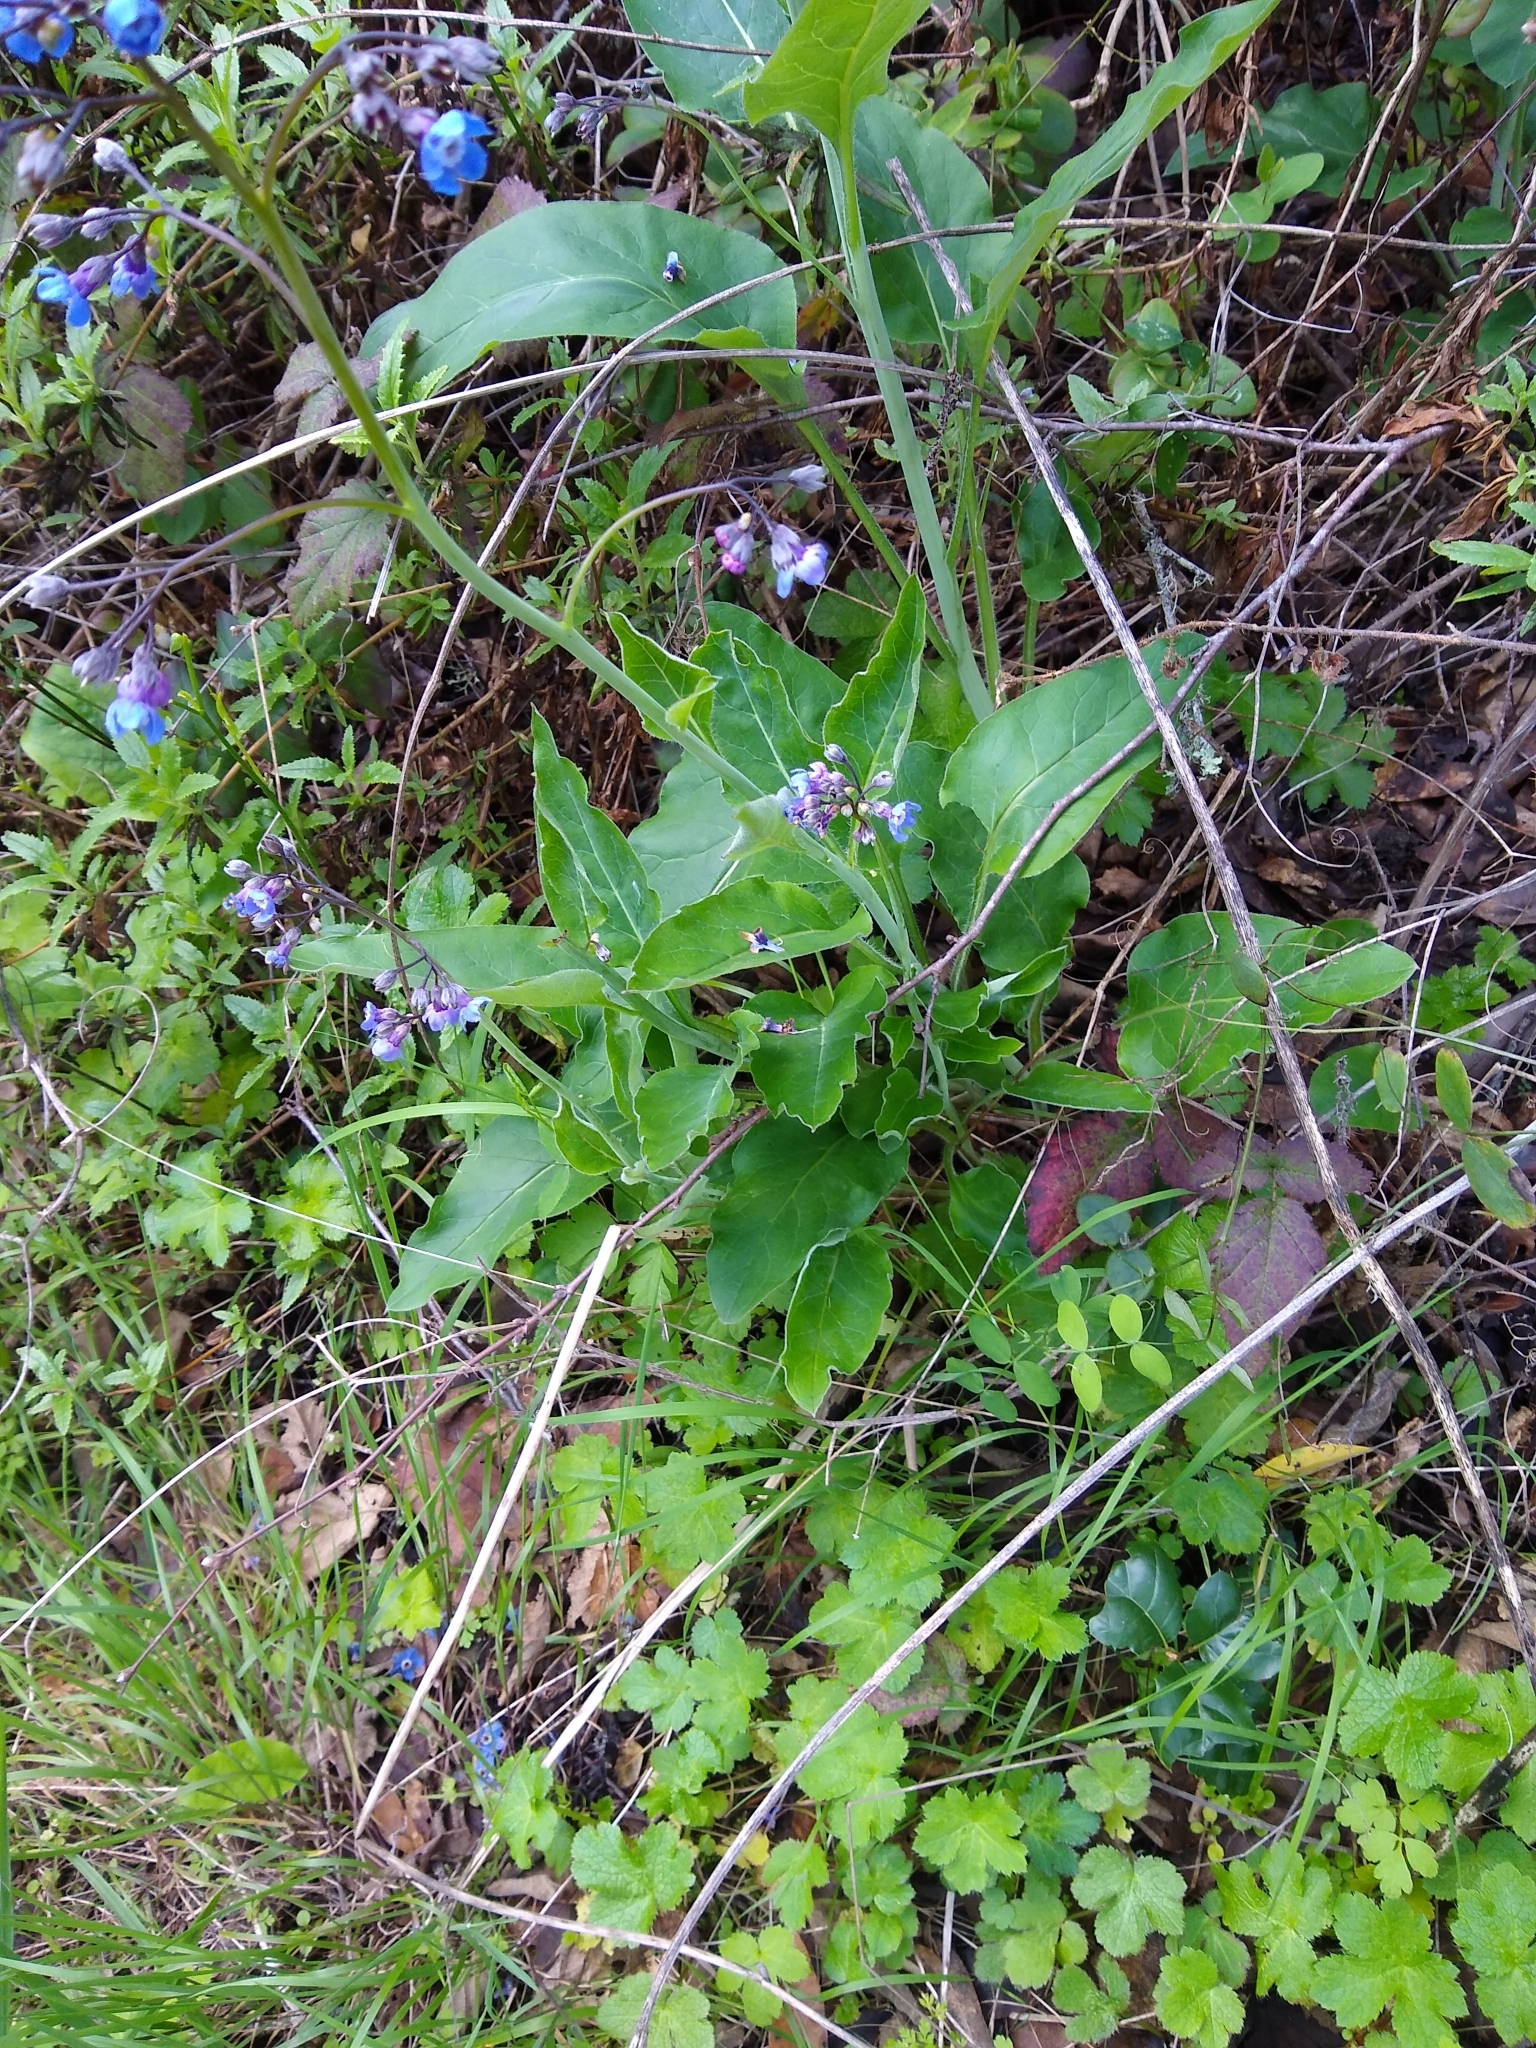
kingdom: Plantae
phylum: Tracheophyta
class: Magnoliopsida
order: Boraginales
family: Boraginaceae
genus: Adelinia
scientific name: Adelinia grande
